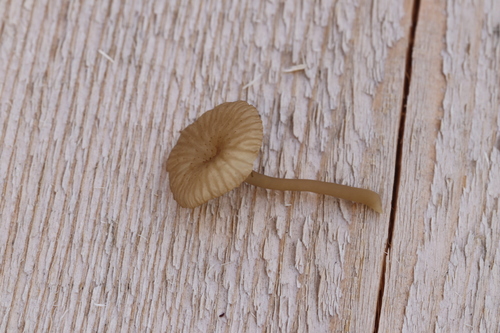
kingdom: Fungi
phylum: Basidiomycota
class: Agaricomycetes
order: Agaricales
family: Hygrophoraceae
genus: Lichenomphalia
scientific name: Lichenomphalia umbellifera
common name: Heath navel
